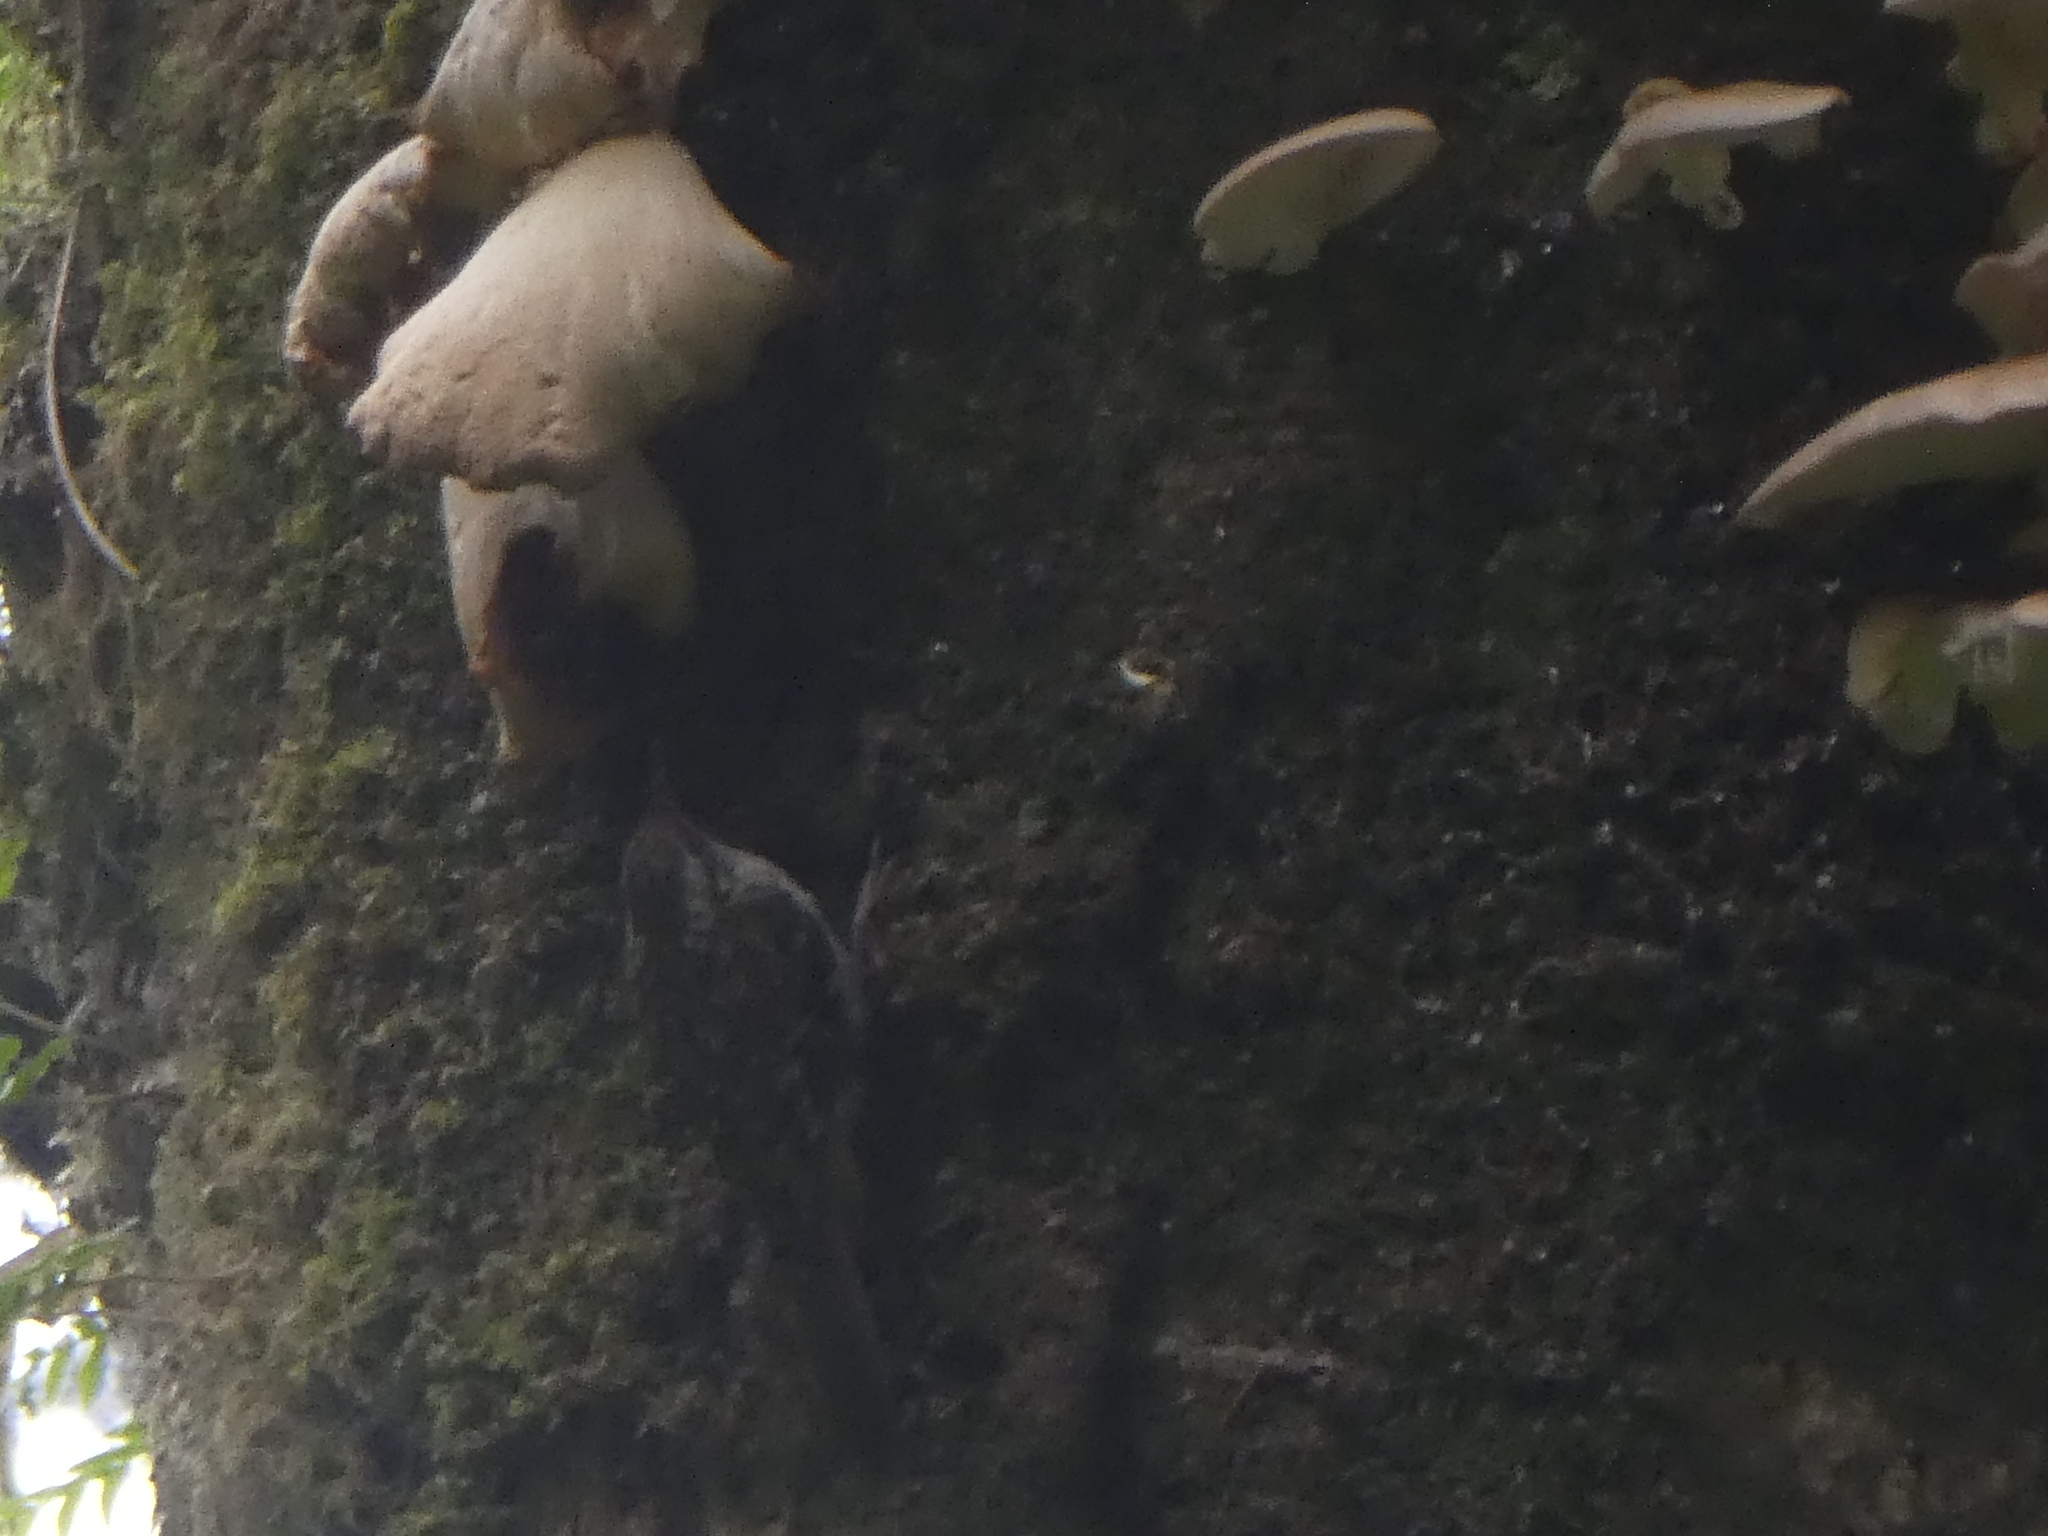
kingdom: Animalia
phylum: Chordata
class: Aves
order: Passeriformes
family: Certhiidae
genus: Certhia
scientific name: Certhia americana
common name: Brown creeper
